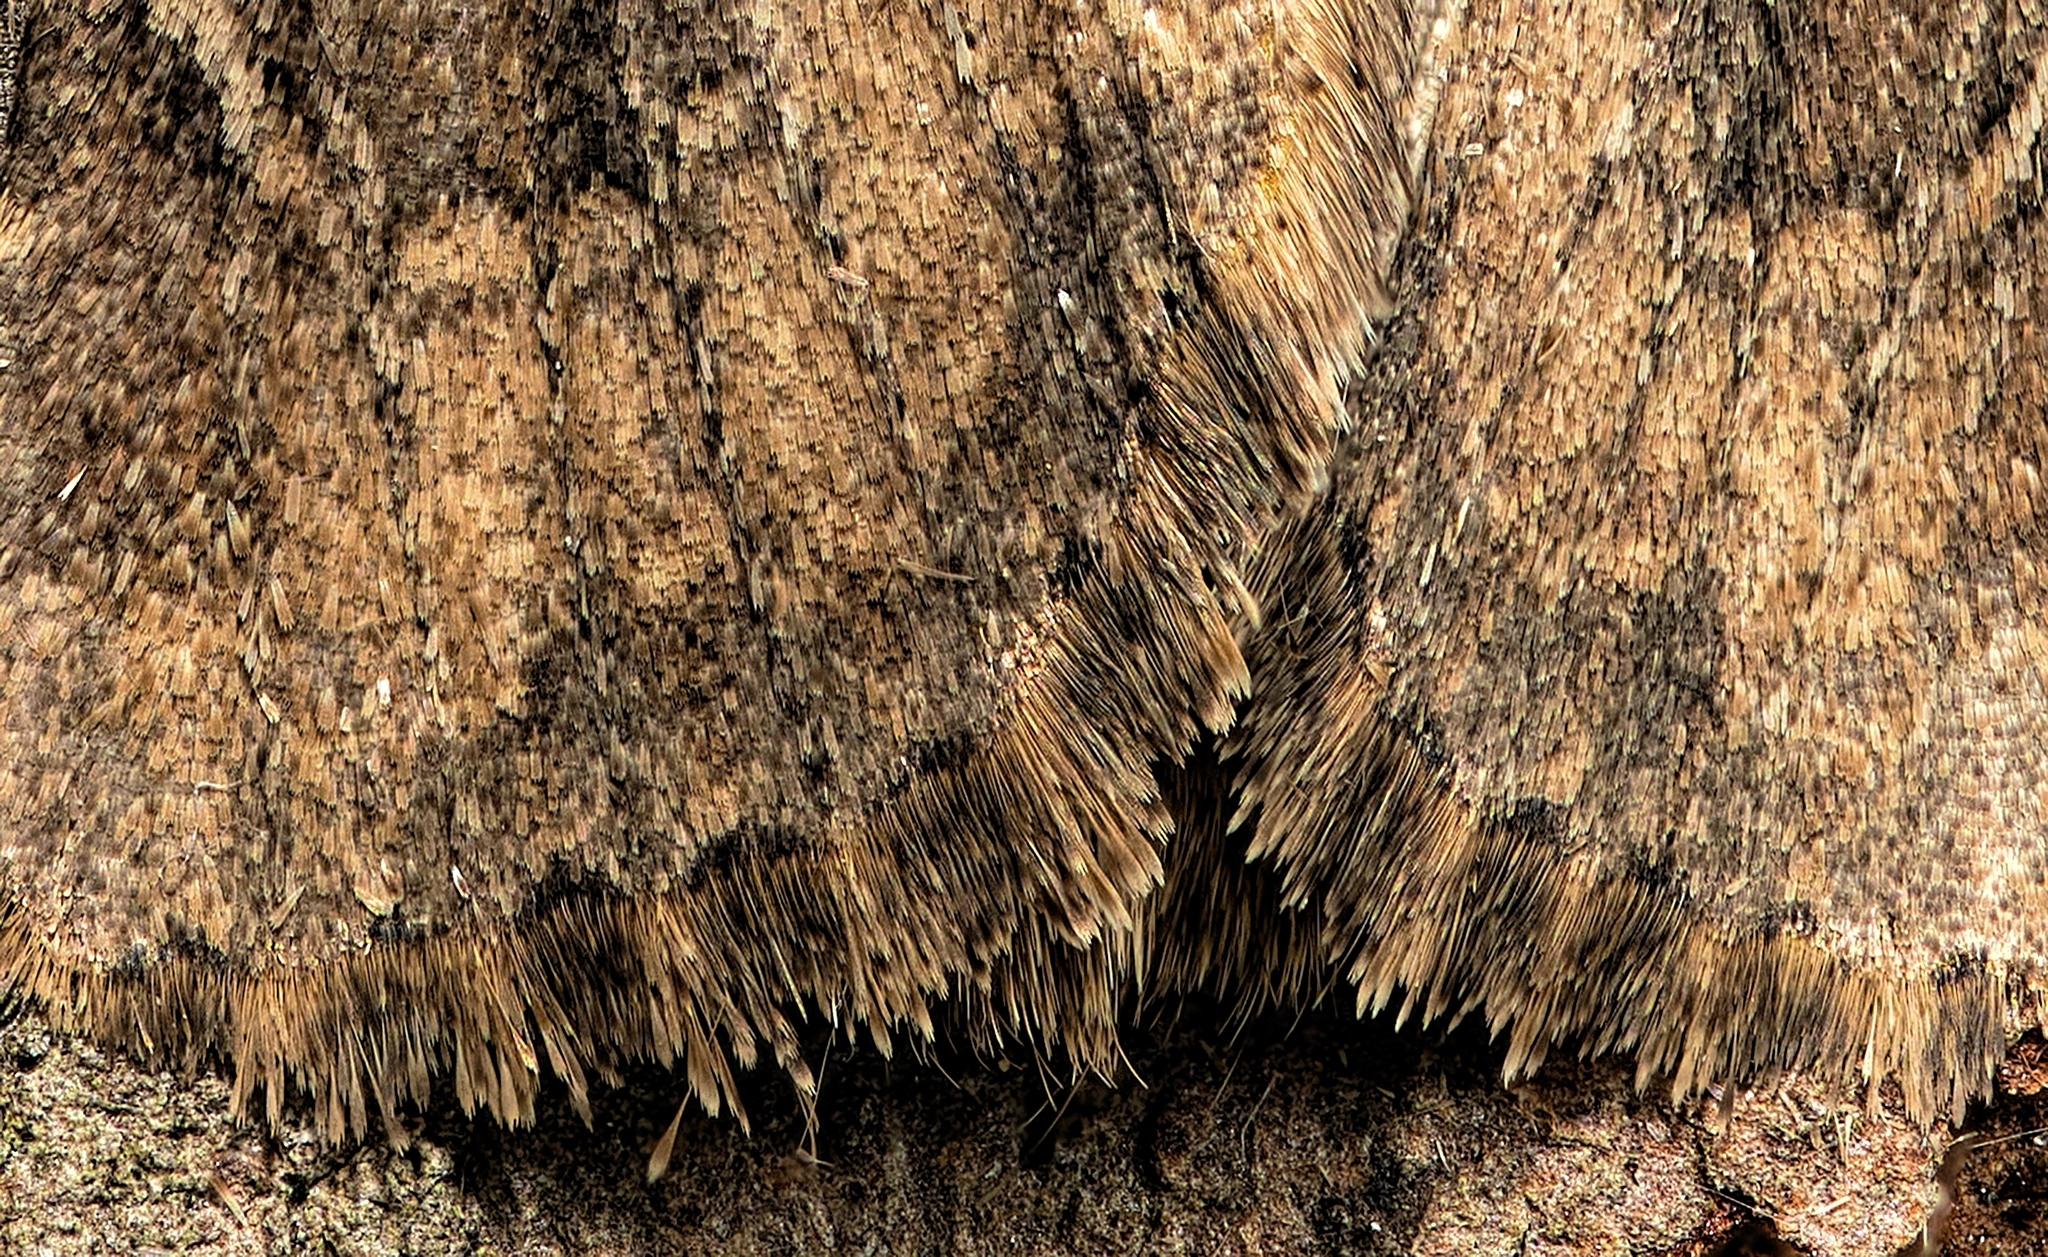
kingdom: Animalia
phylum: Arthropoda
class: Insecta
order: Lepidoptera
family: Noctuidae
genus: Luperina
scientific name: Luperina testacea
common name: Flounced rustic
